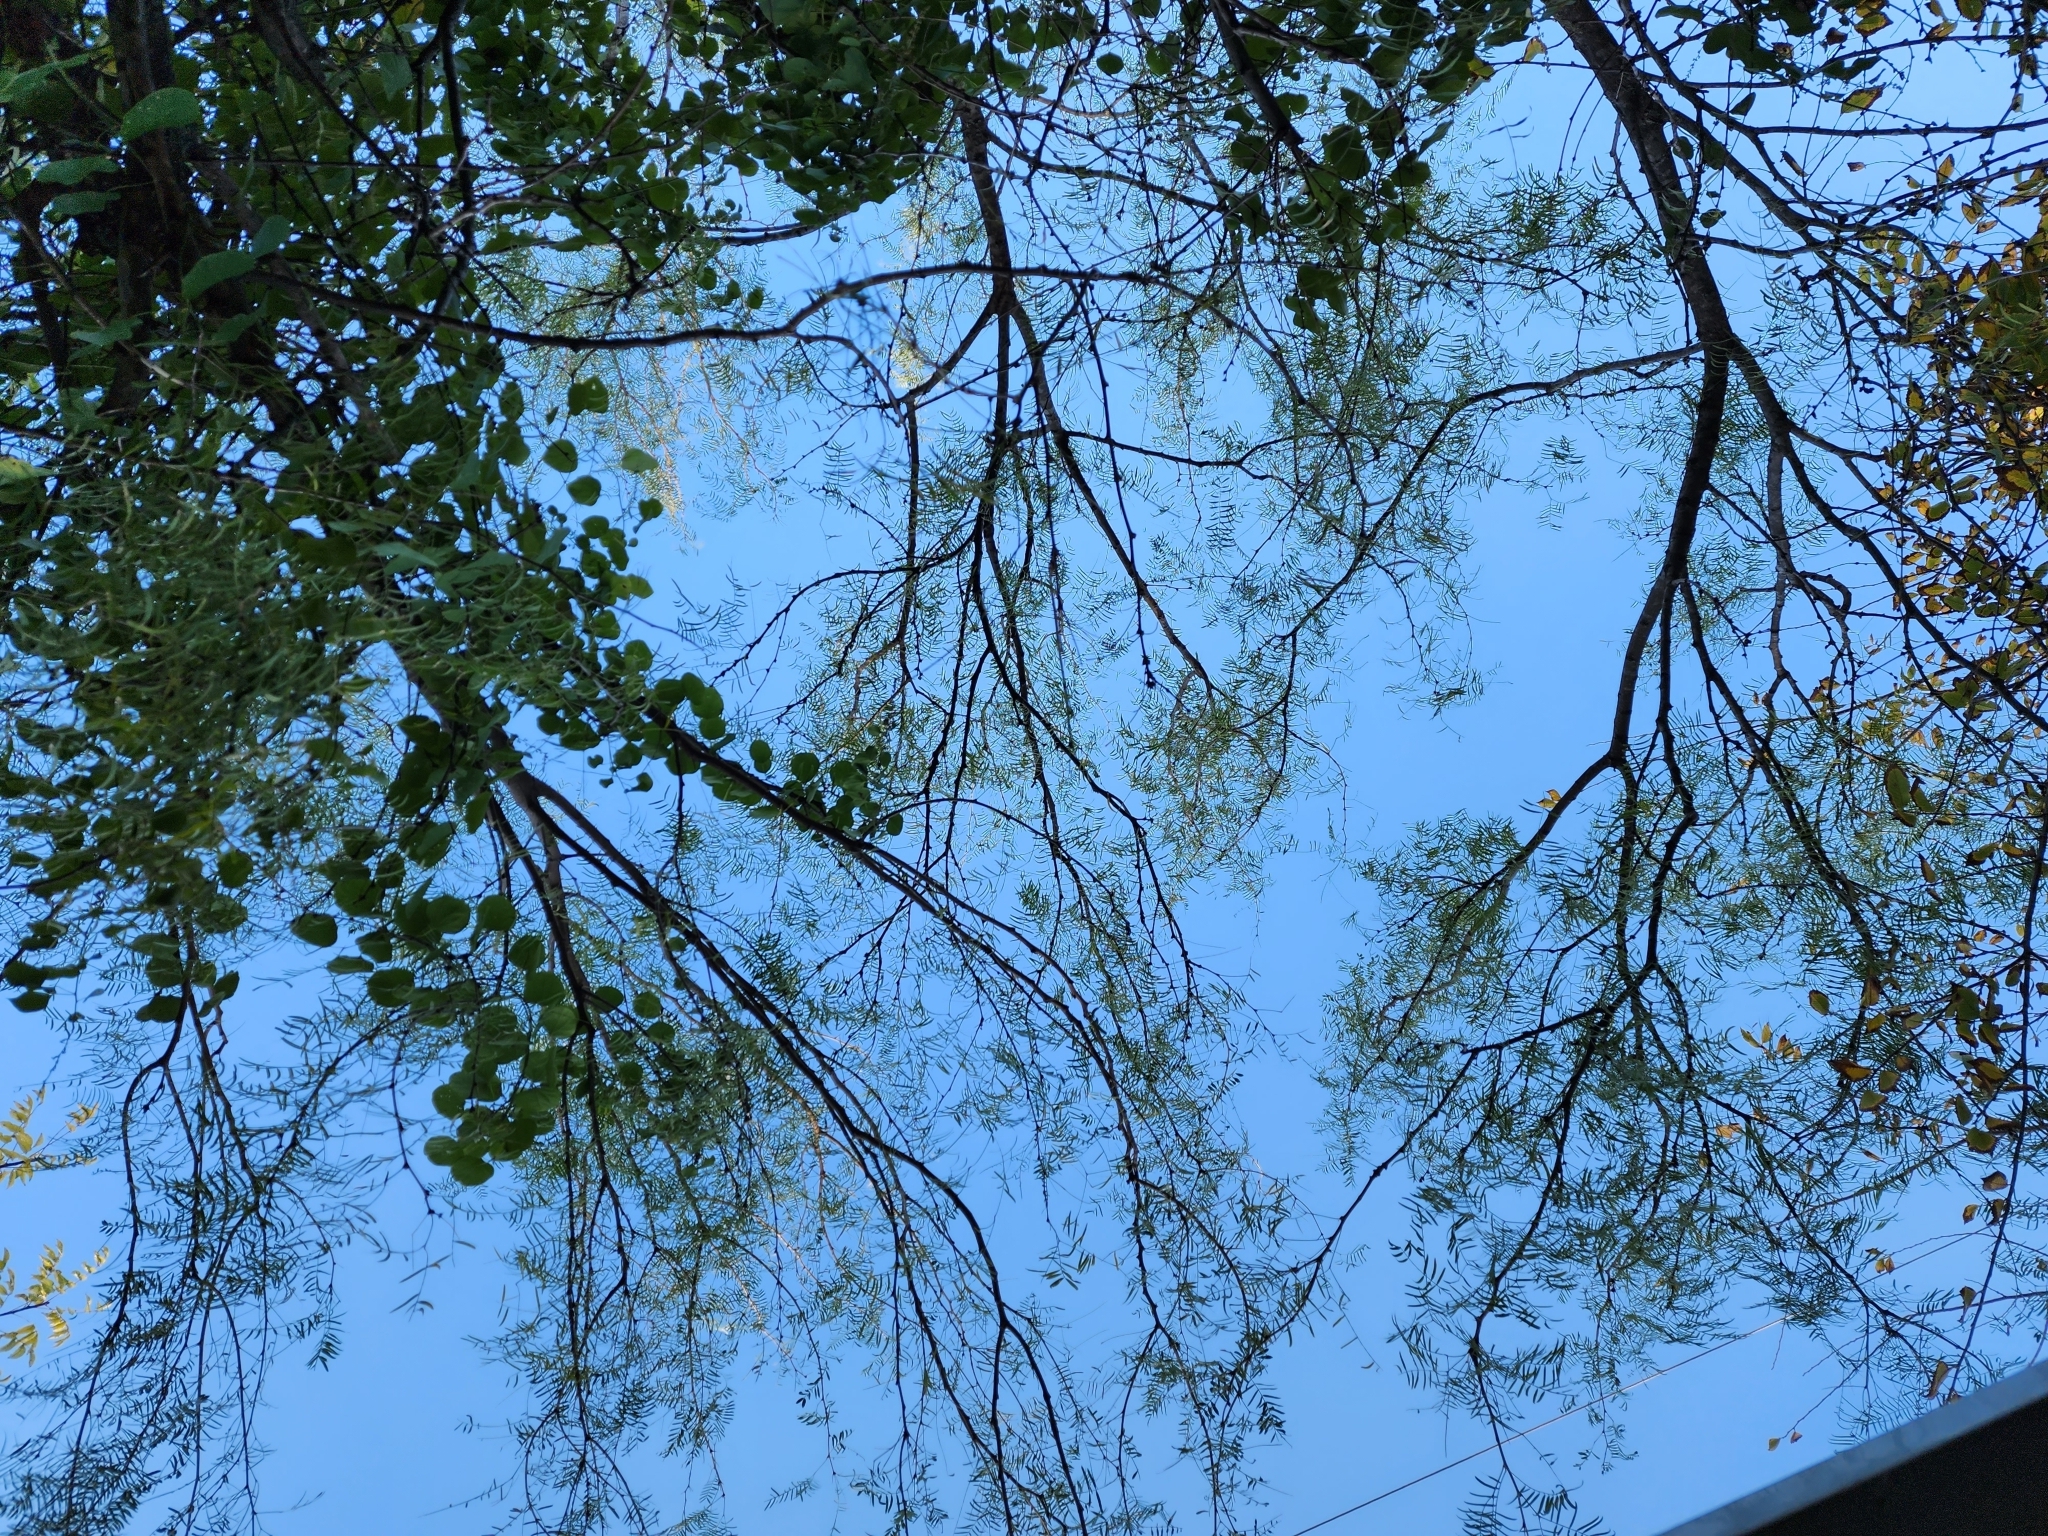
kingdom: Plantae
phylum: Tracheophyta
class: Magnoliopsida
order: Fabales
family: Fabaceae
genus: Prosopis
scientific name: Prosopis glandulosa
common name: Honey mesquite
